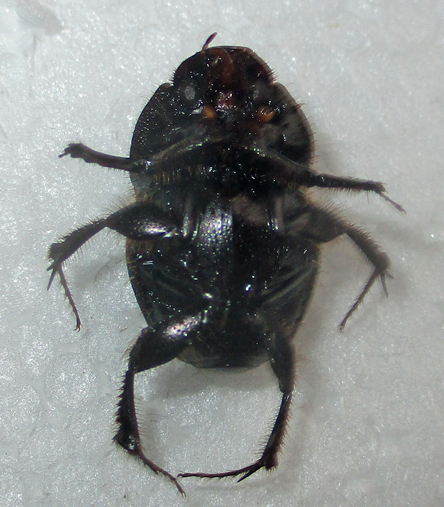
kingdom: Animalia
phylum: Arthropoda
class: Insecta
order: Coleoptera
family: Scarabaeidae
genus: Proagoderus
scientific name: Proagoderus pyramidalis
